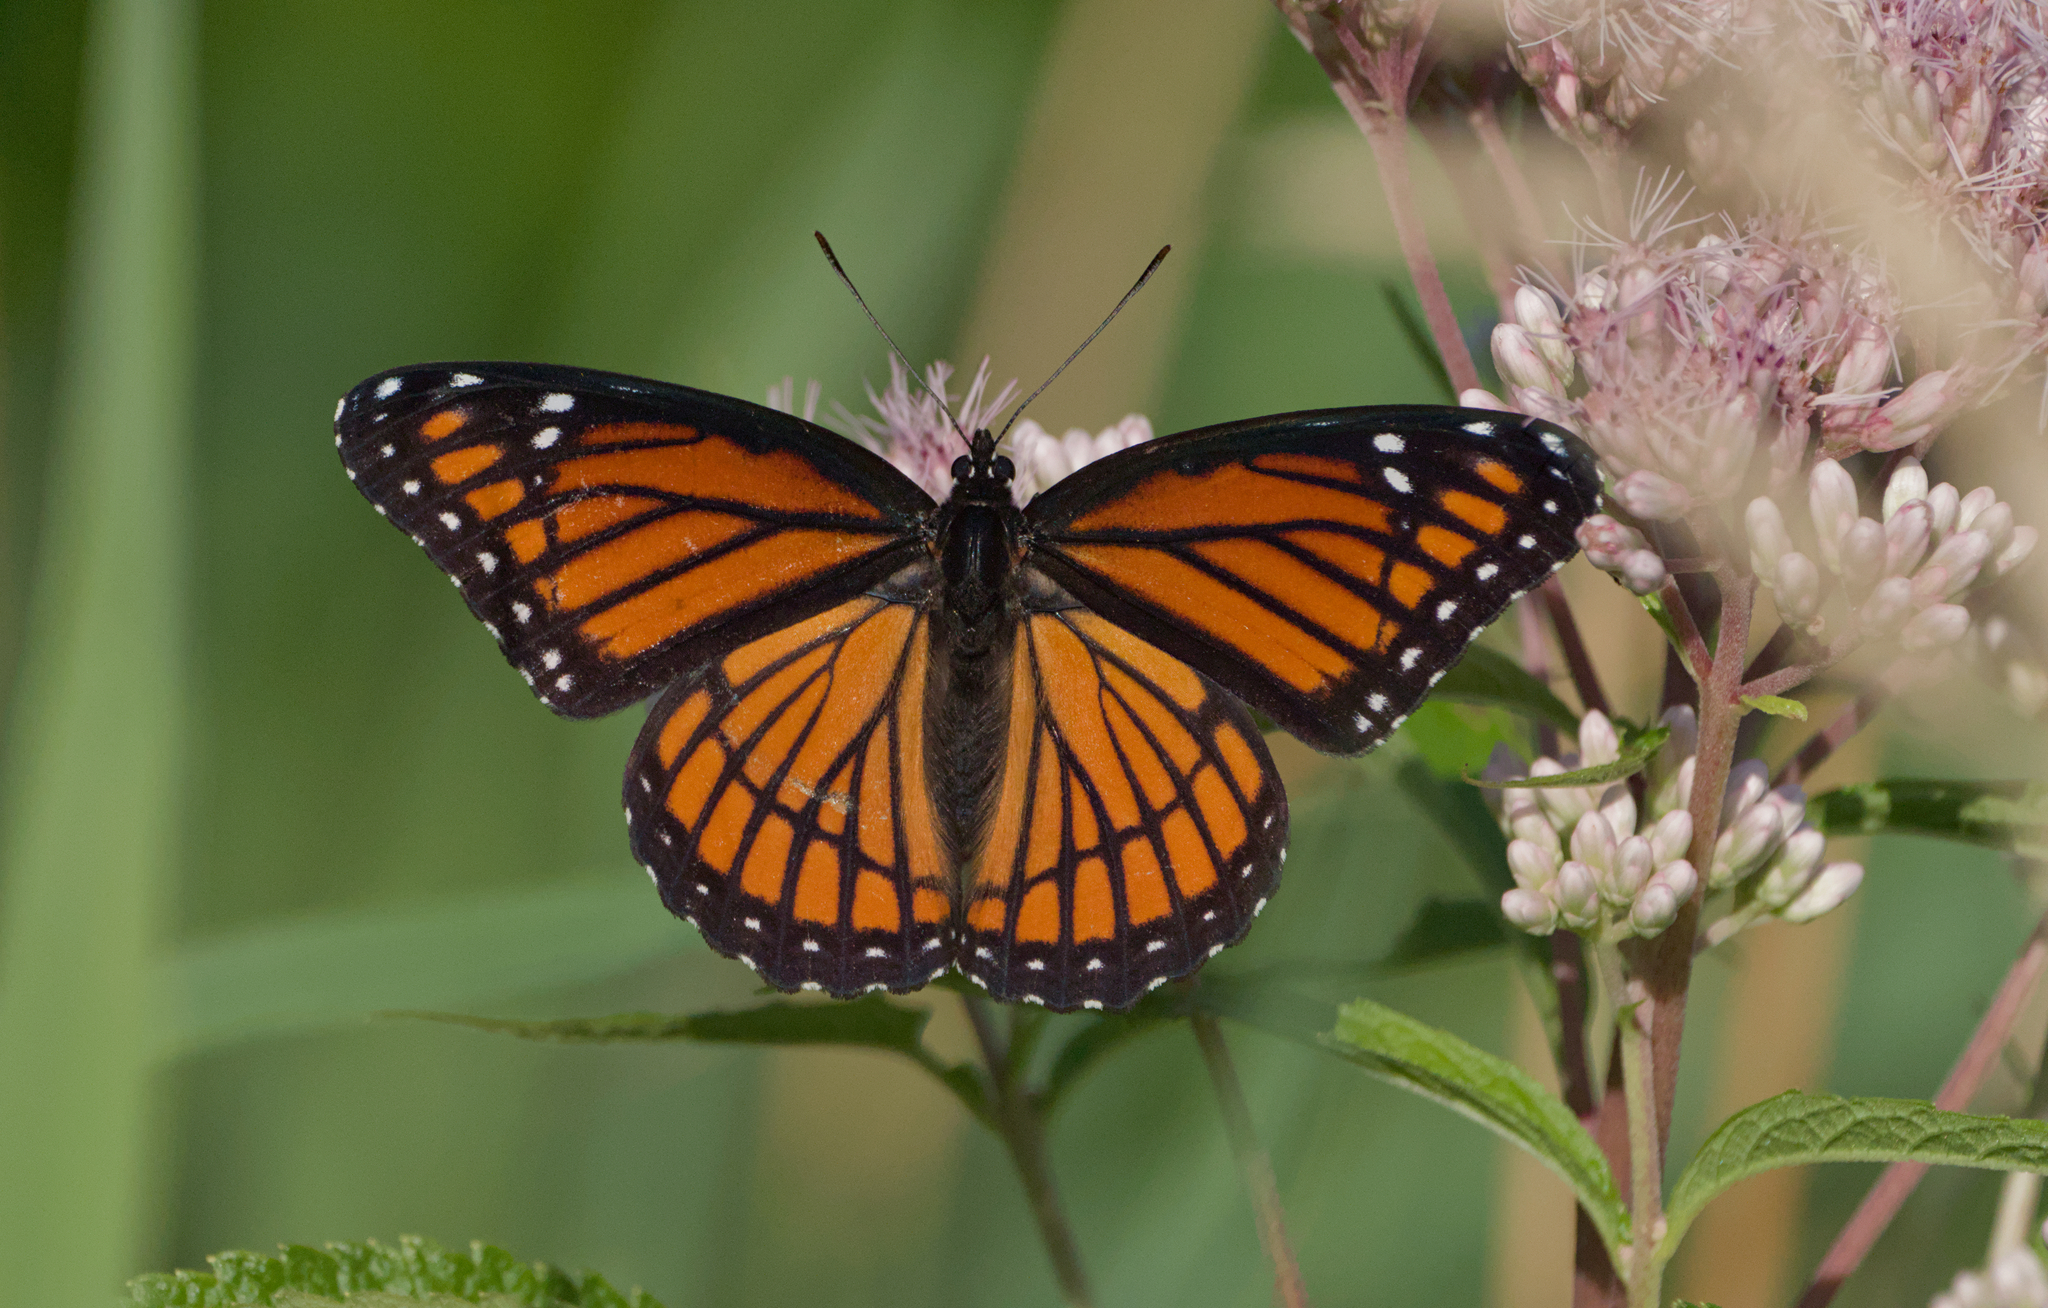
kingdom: Animalia
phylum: Arthropoda
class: Insecta
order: Lepidoptera
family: Nymphalidae
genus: Limenitis
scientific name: Limenitis archippus
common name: Viceroy
